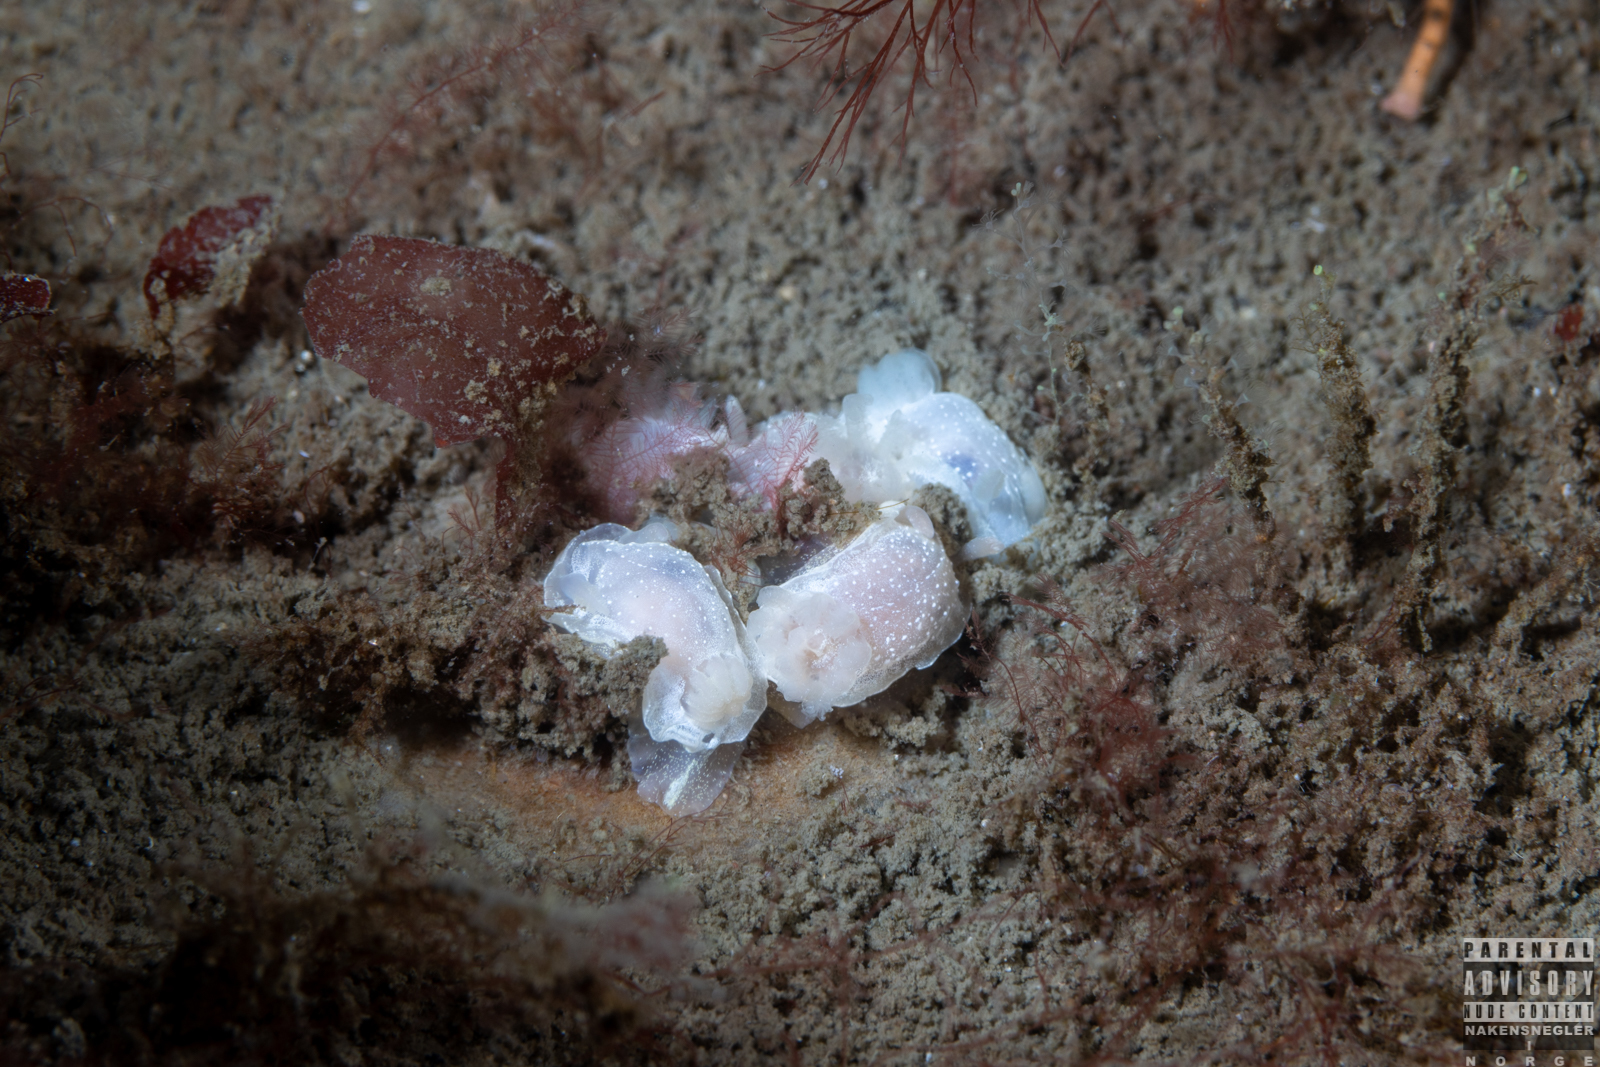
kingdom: Animalia
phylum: Mollusca
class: Gastropoda
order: Nudibranchia
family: Goniodorididae
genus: Okenia
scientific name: Okenia
